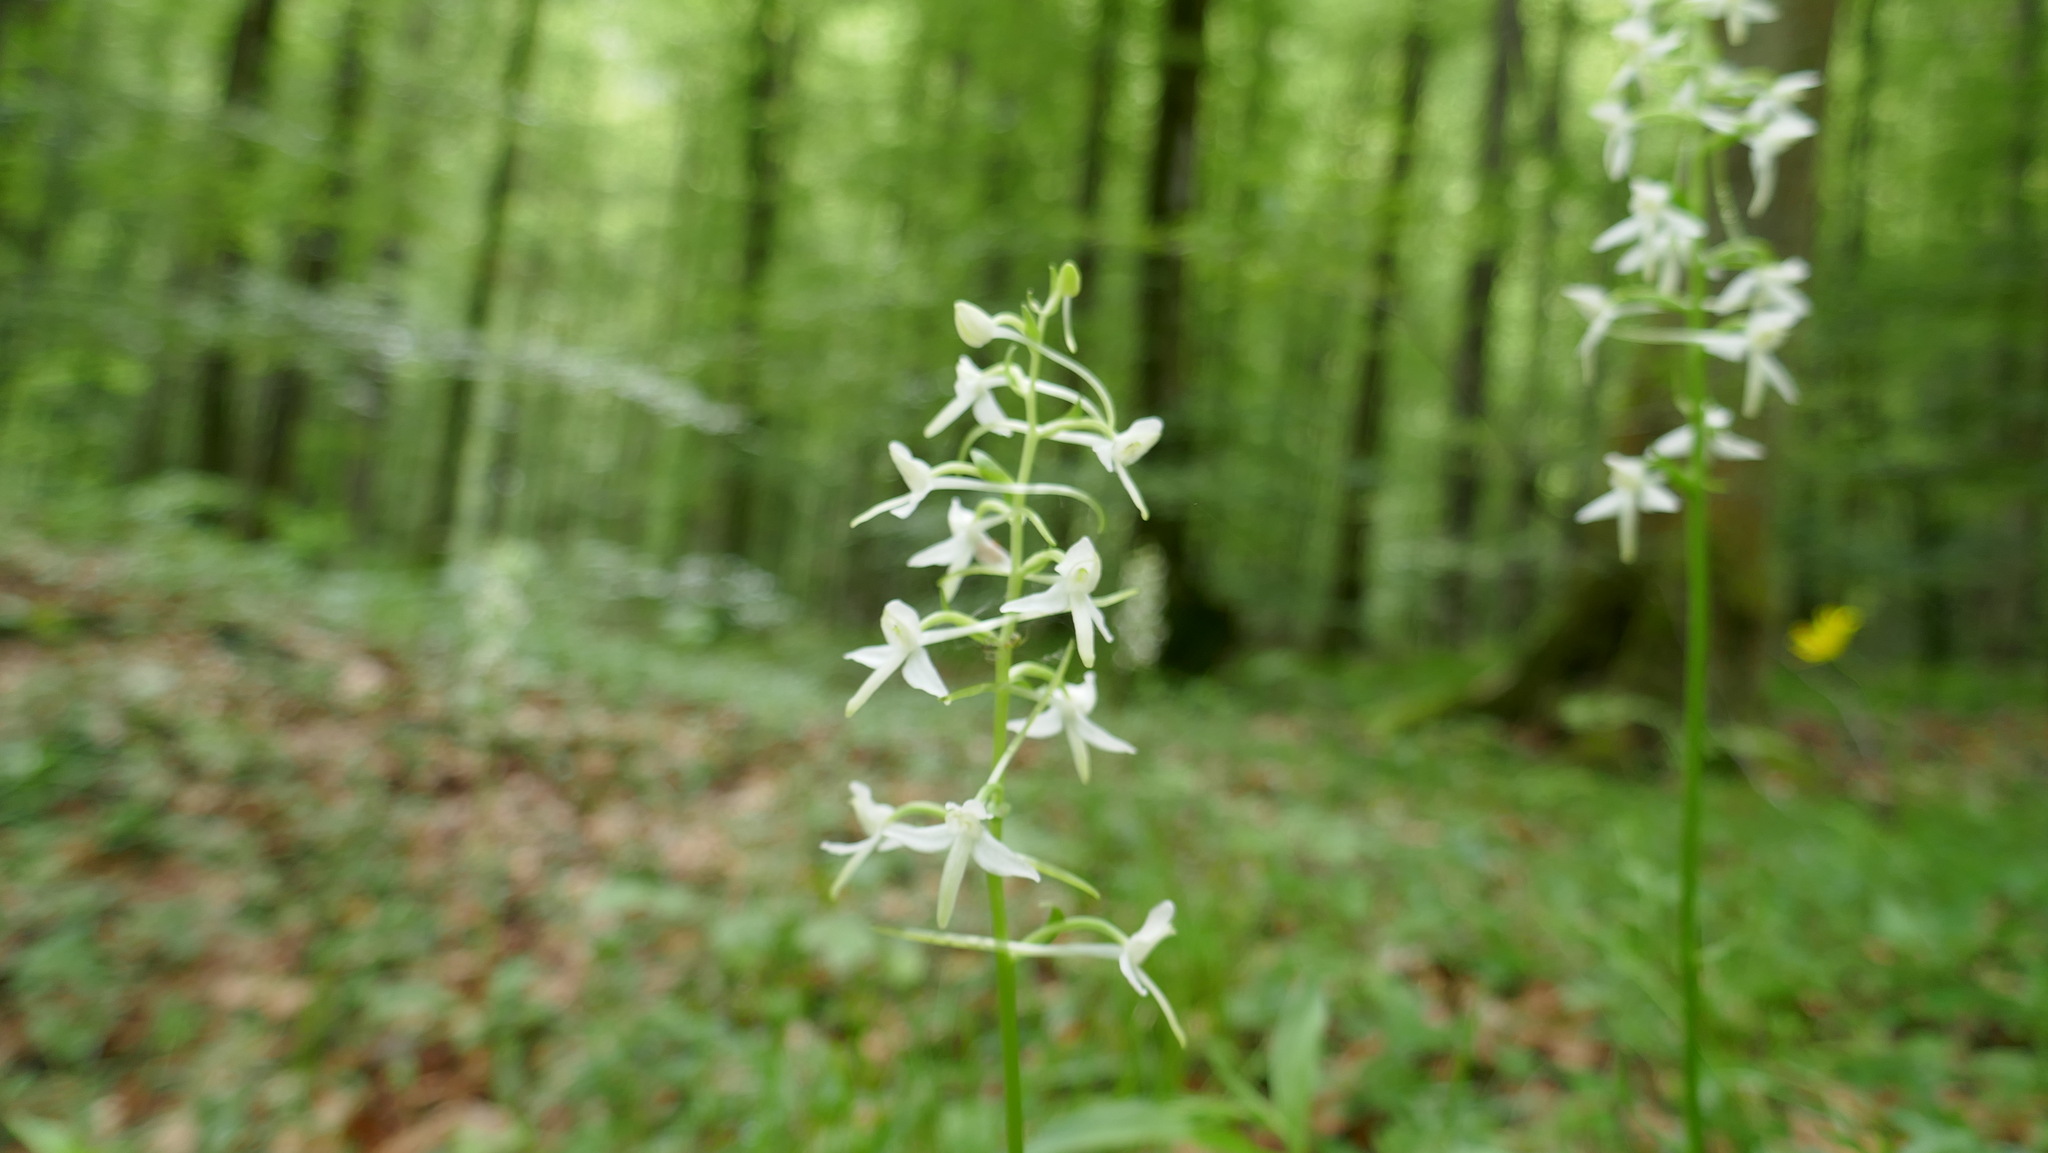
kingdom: Plantae
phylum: Tracheophyta
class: Liliopsida
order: Asparagales
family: Orchidaceae
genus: Platanthera
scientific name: Platanthera bifolia
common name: Lesser butterfly-orchid
